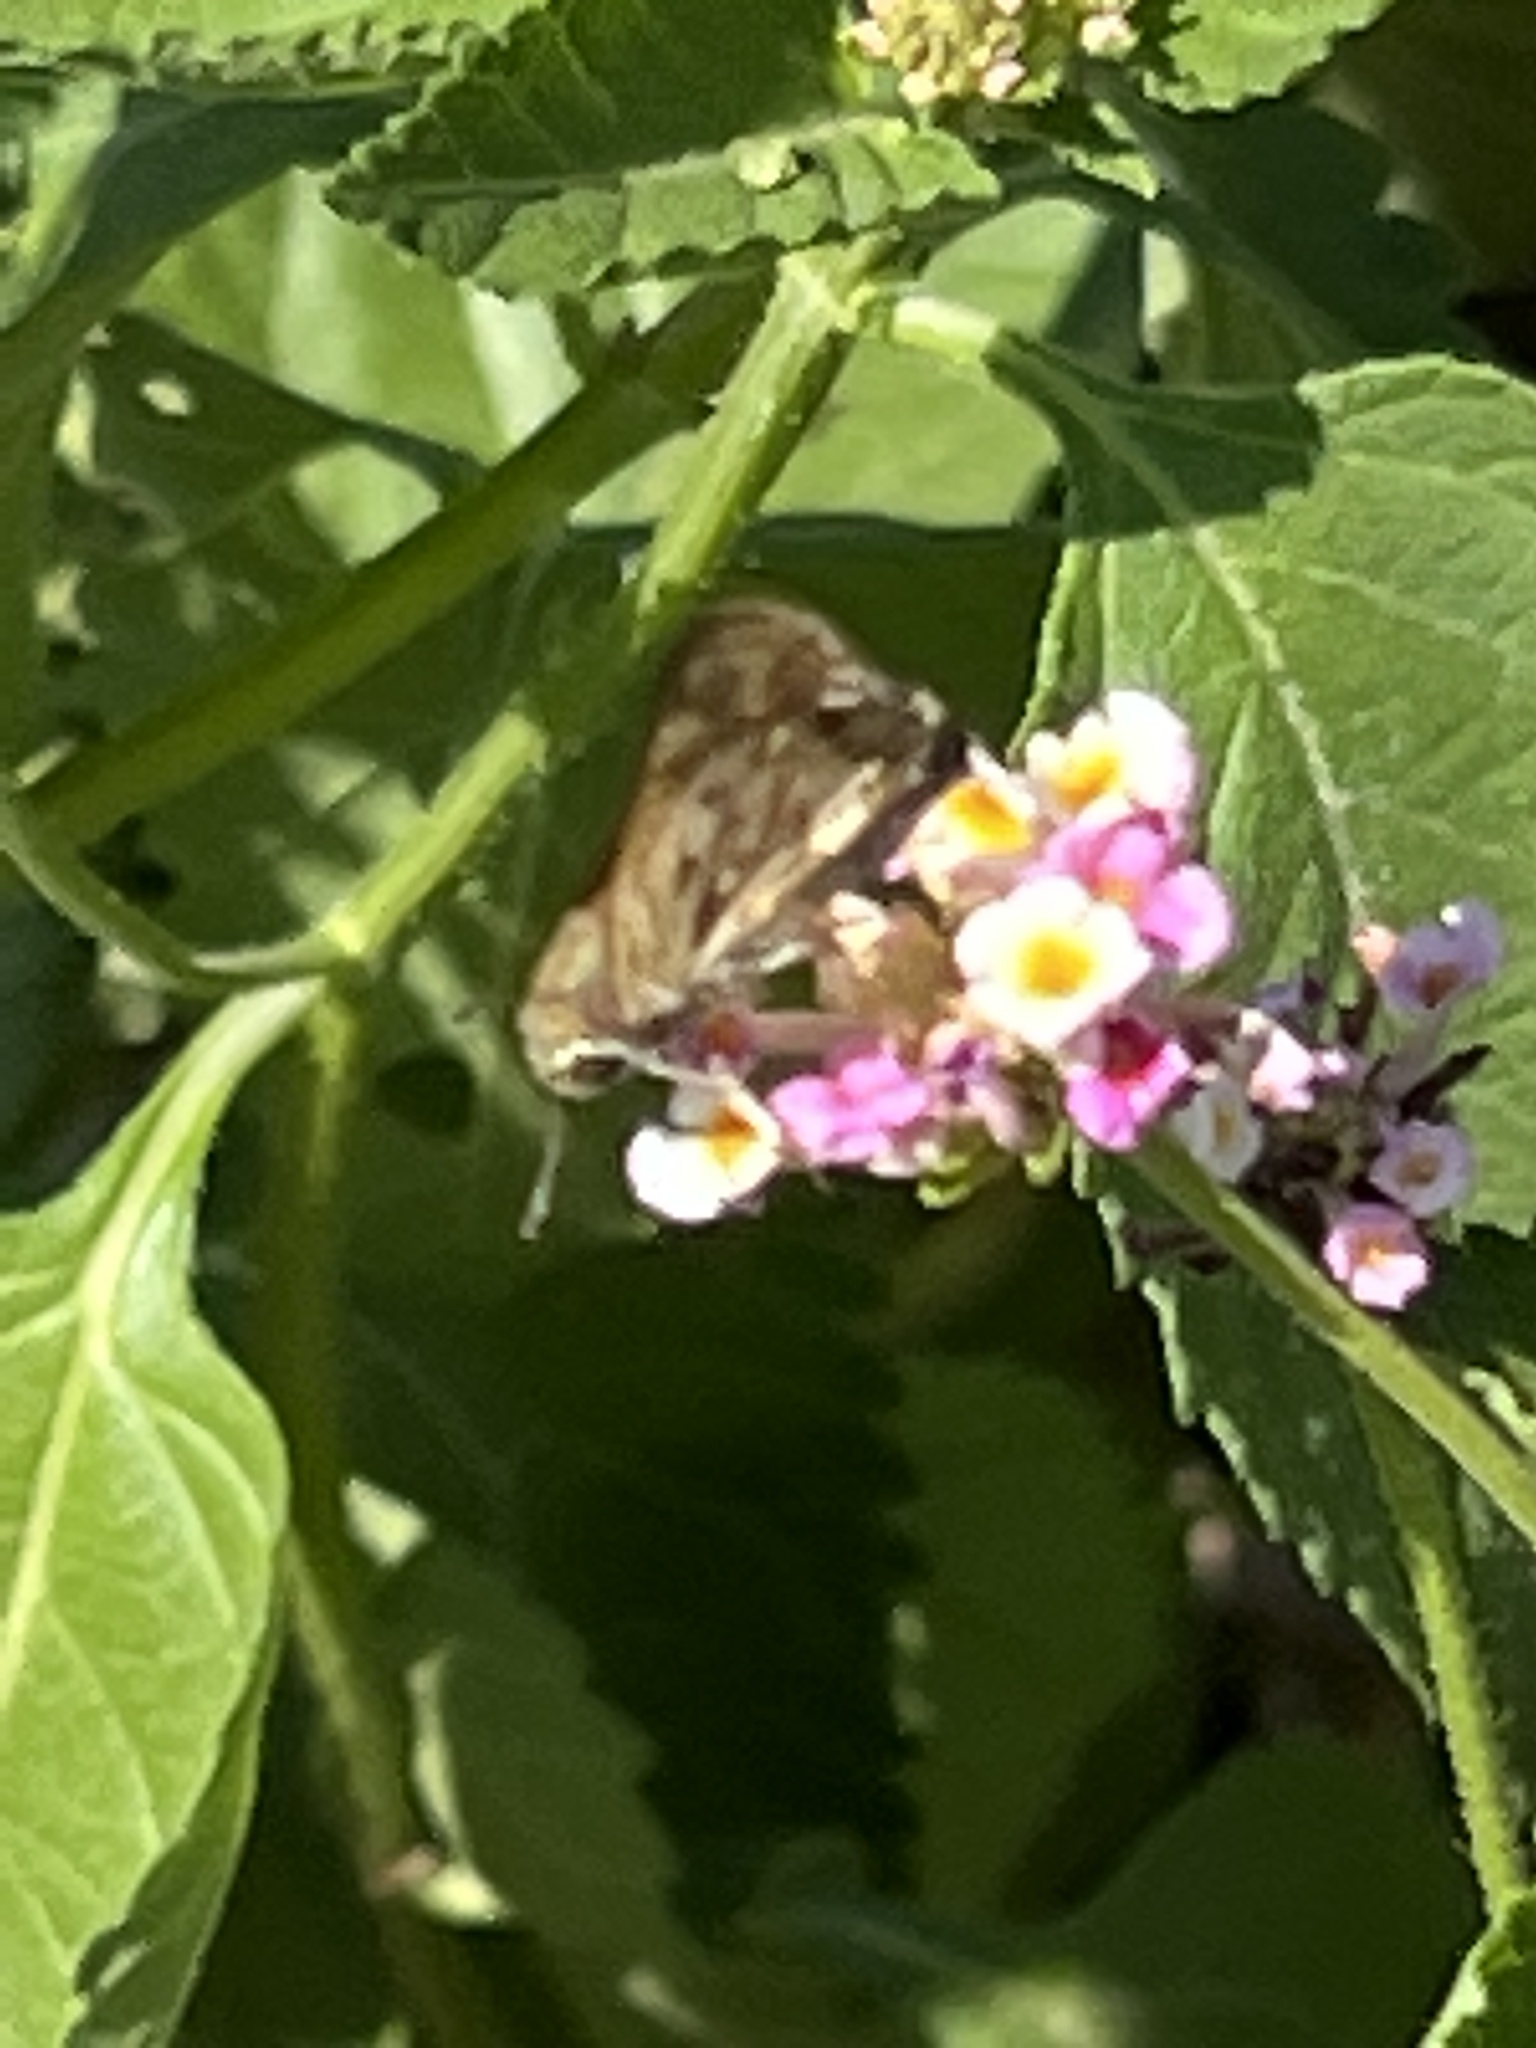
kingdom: Animalia
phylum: Arthropoda
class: Insecta
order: Lepidoptera
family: Hesperiidae
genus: Hylephila
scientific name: Hylephila phyleus
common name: Fiery skipper
